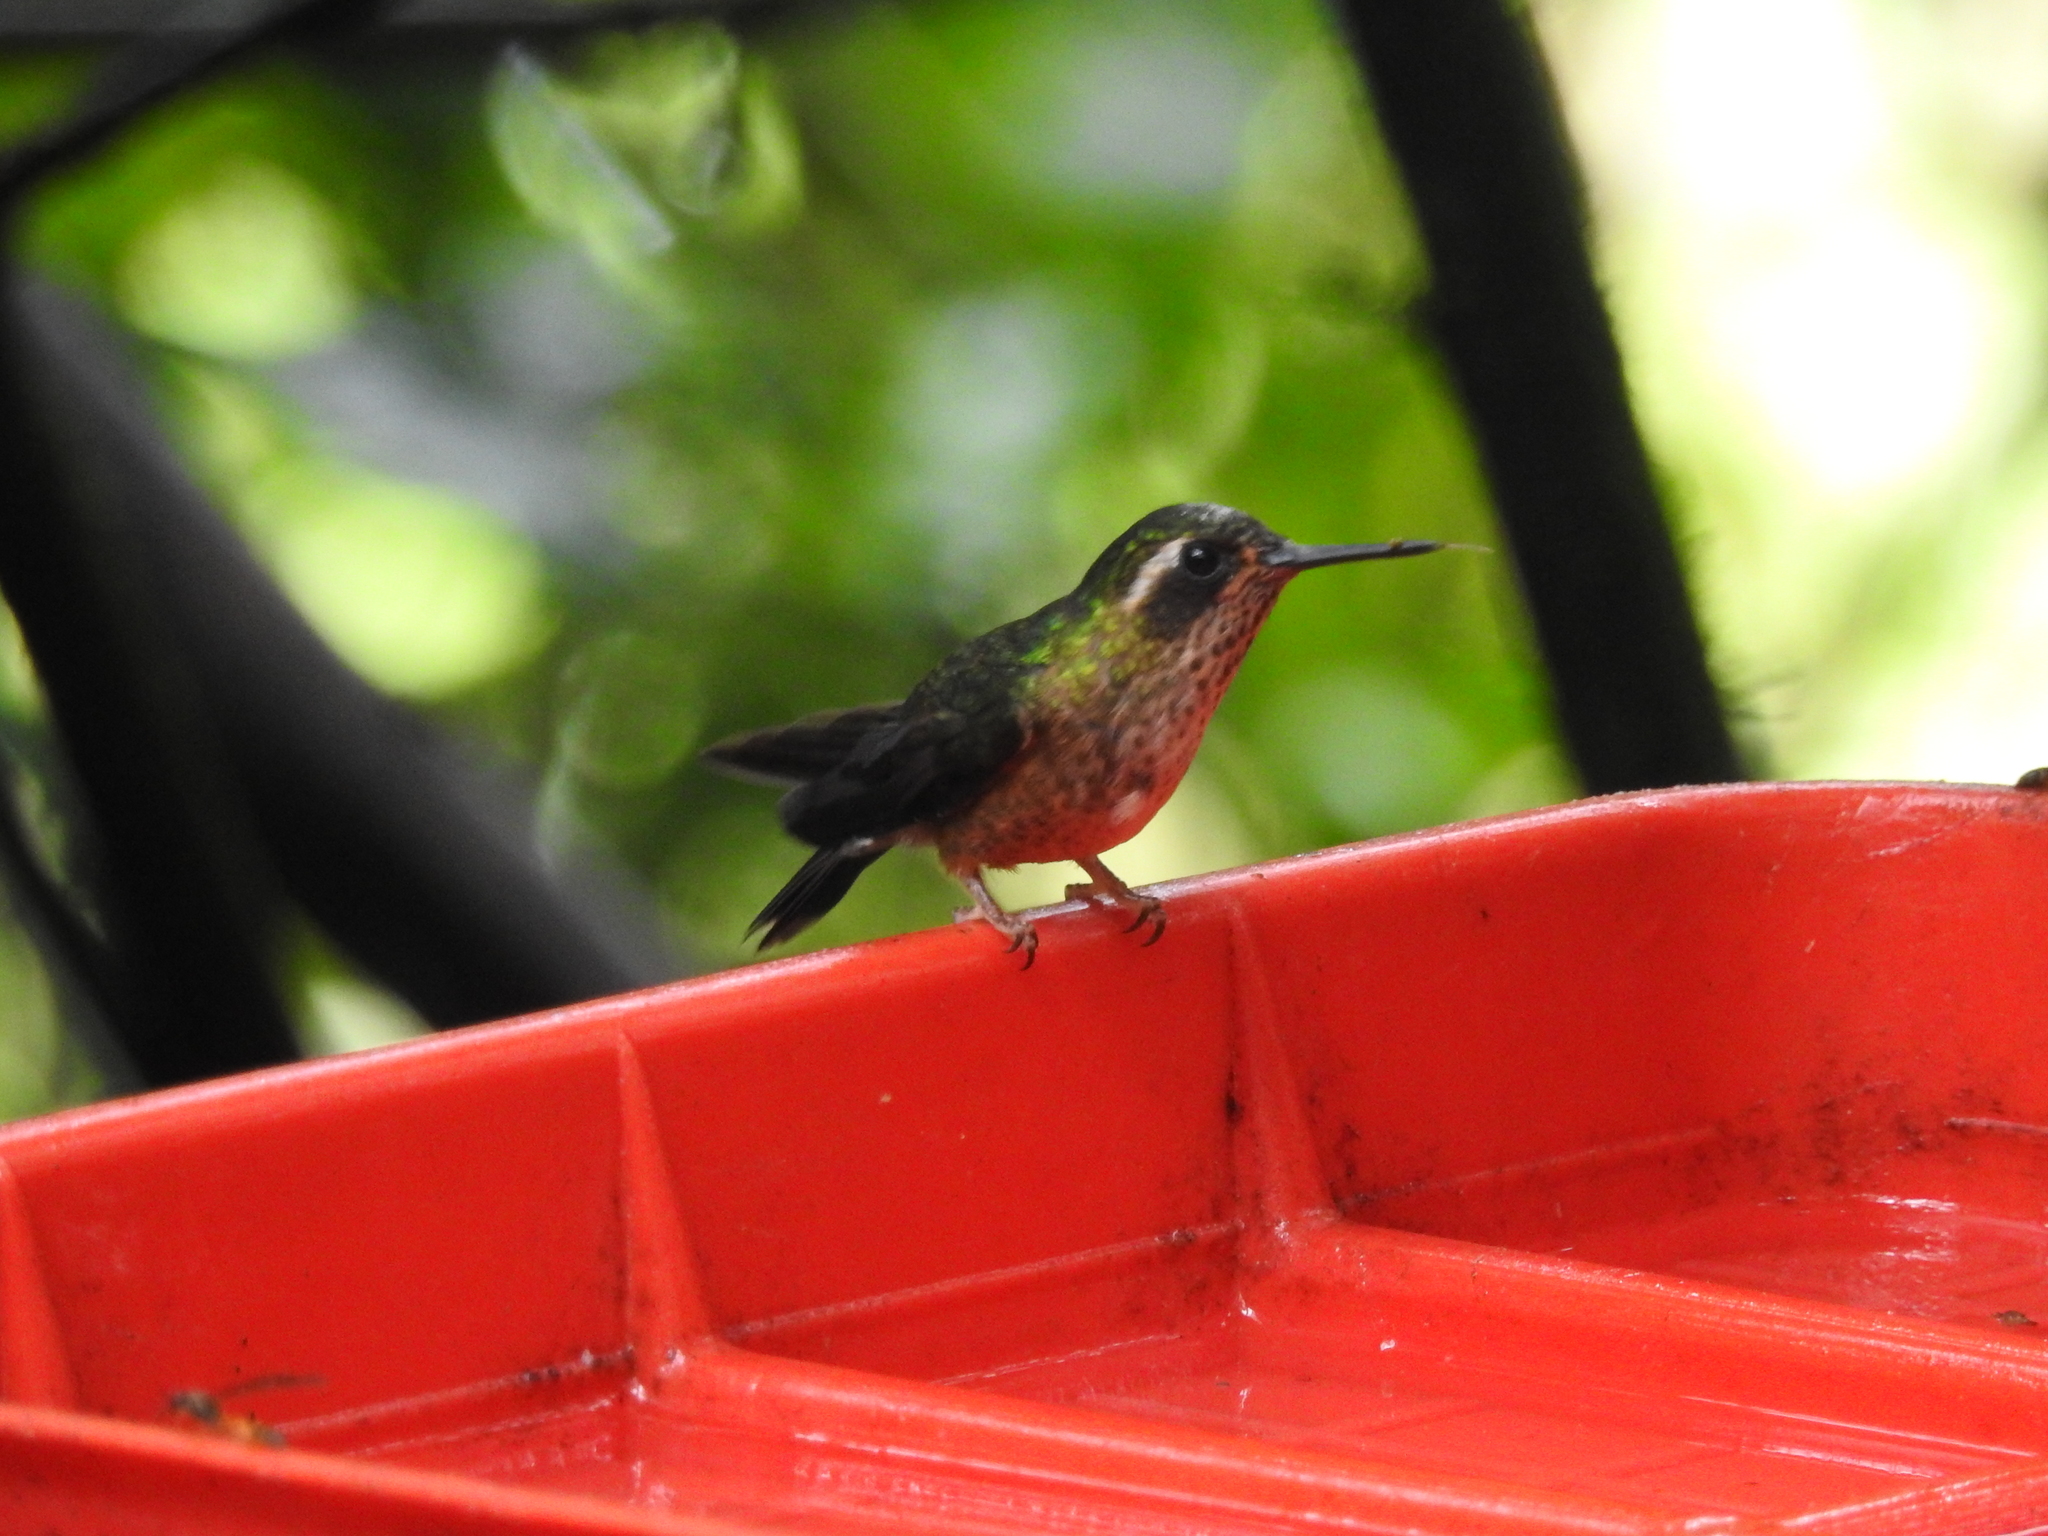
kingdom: Animalia
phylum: Chordata
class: Aves
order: Apodiformes
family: Trochilidae
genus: Adelomyia
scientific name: Adelomyia melanogenys
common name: Speckled hummingbird
